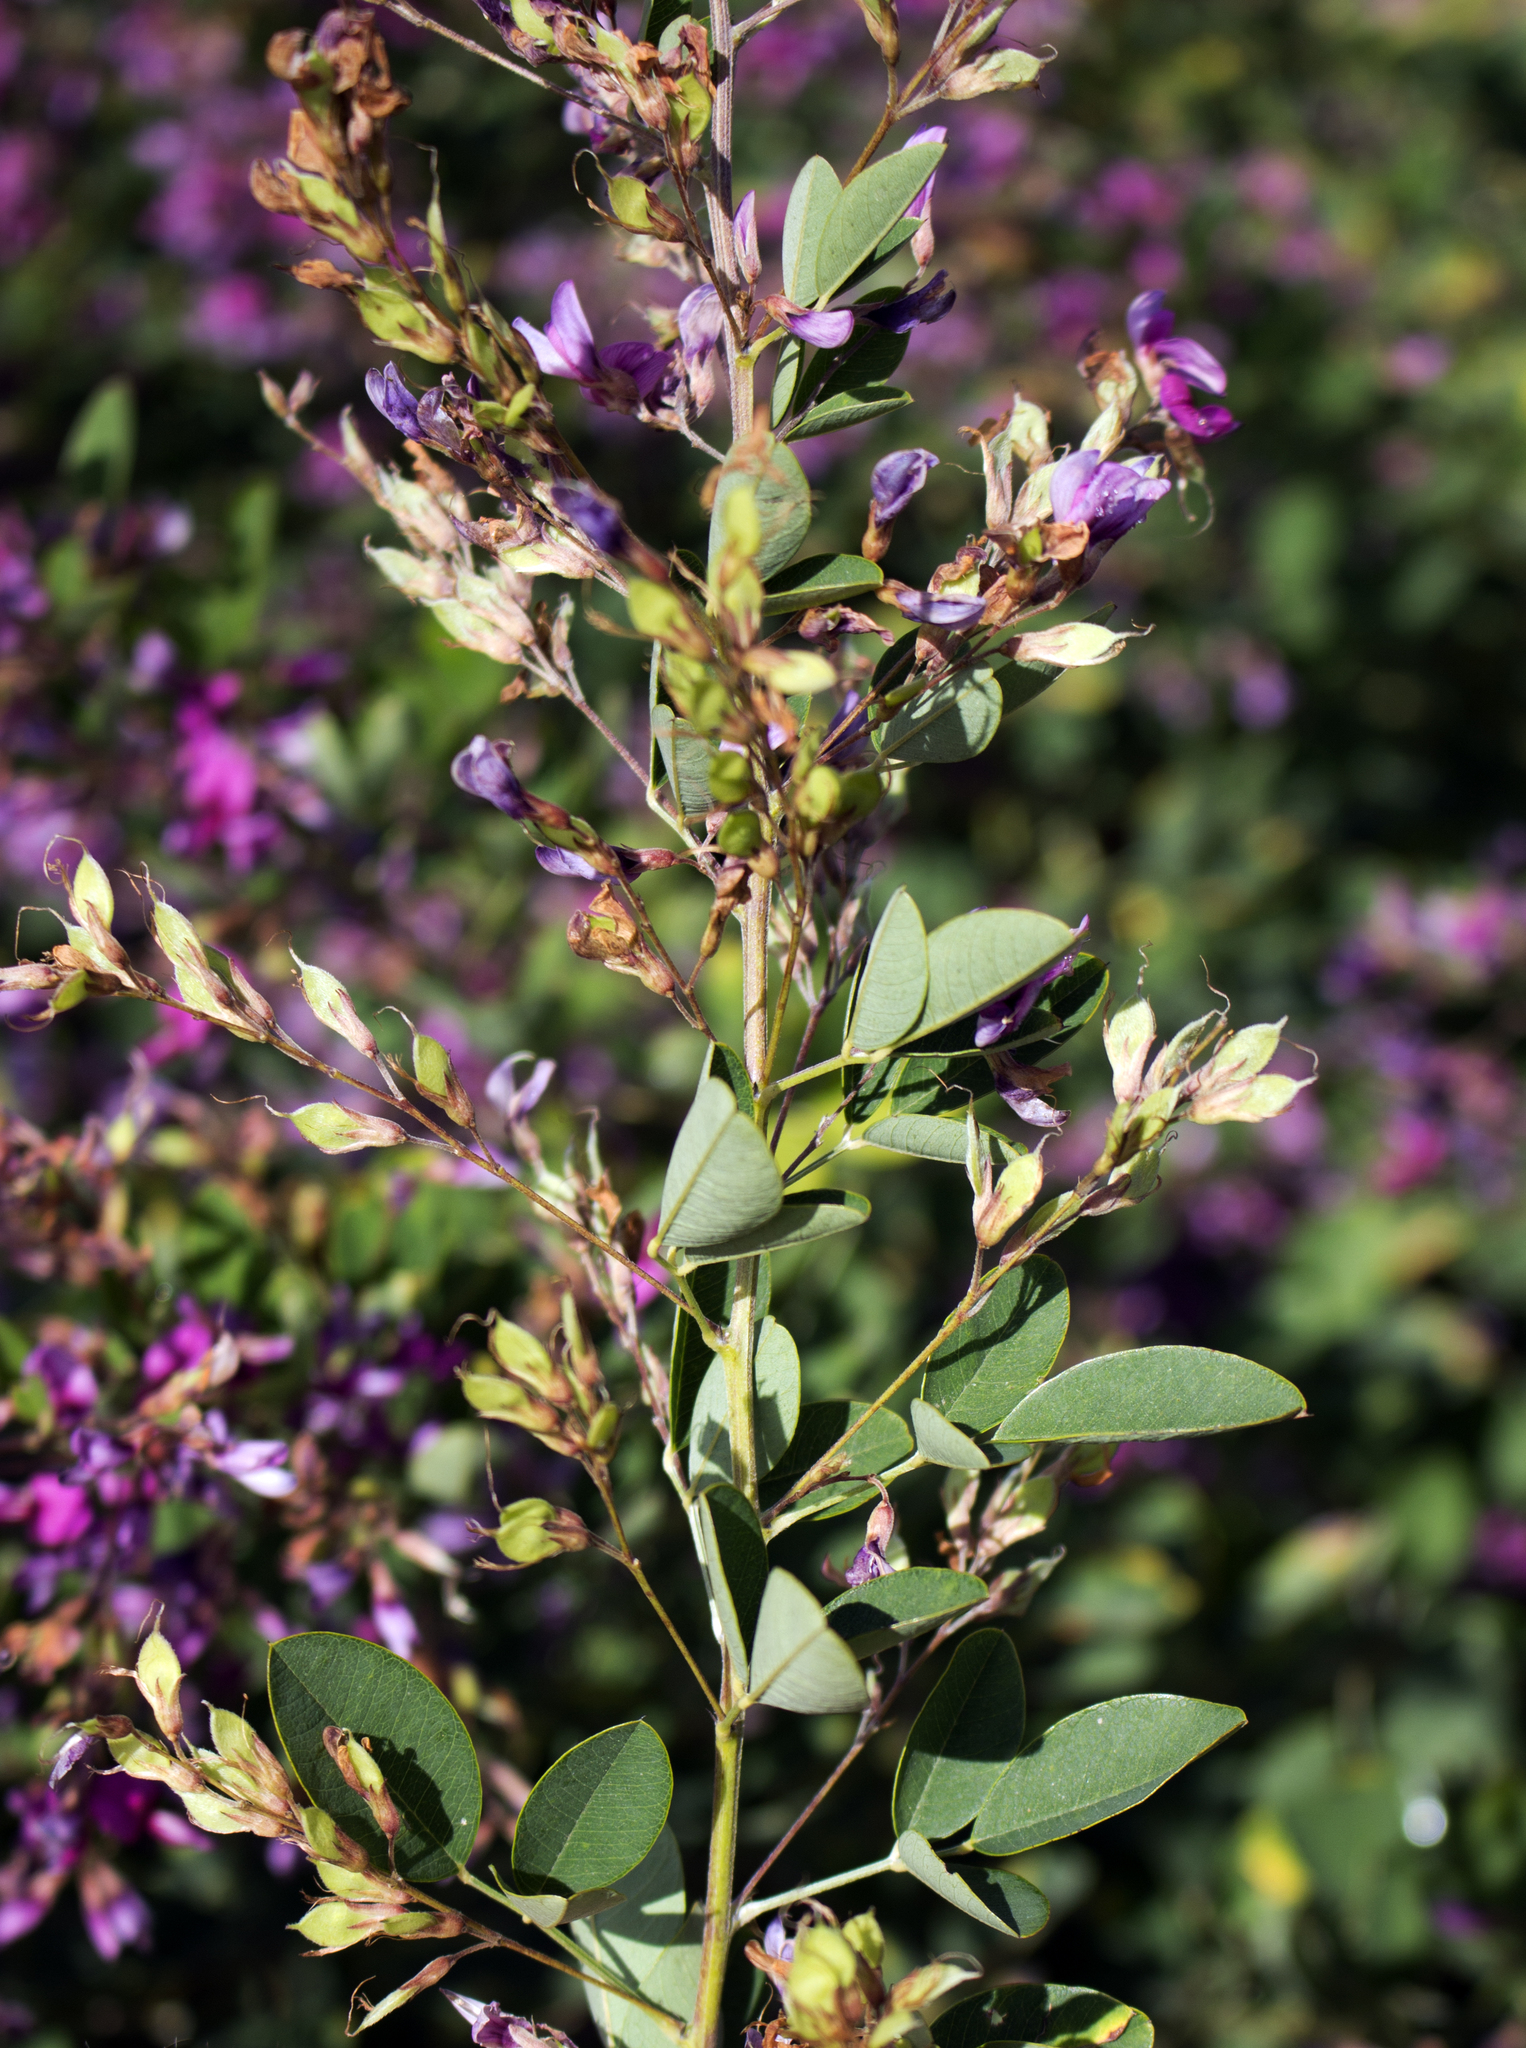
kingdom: Plantae
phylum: Tracheophyta
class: Magnoliopsida
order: Fabales
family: Fabaceae
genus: Lespedeza
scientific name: Lespedeza thunbergii
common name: Thunberg's lespedeza
